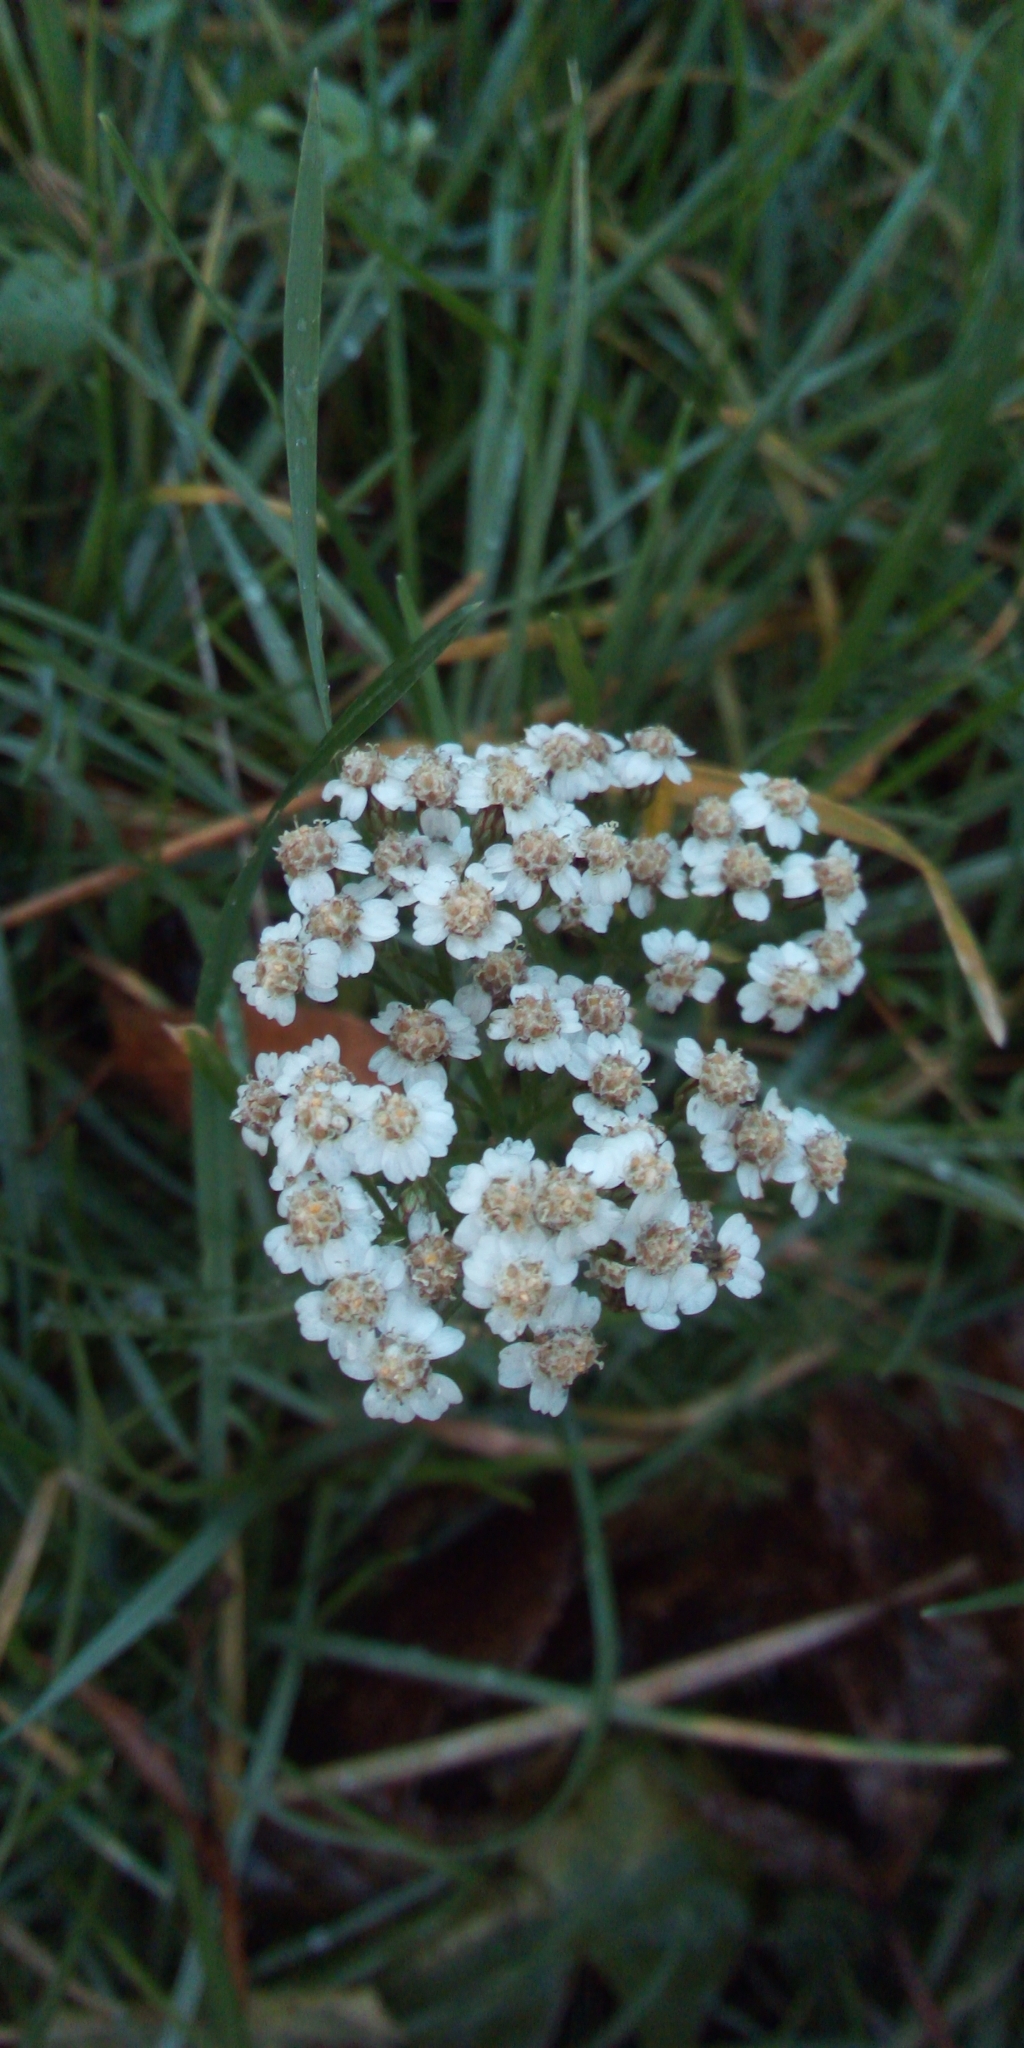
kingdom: Plantae
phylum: Tracheophyta
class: Magnoliopsida
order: Asterales
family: Asteraceae
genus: Achillea
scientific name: Achillea millefolium
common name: Yarrow
